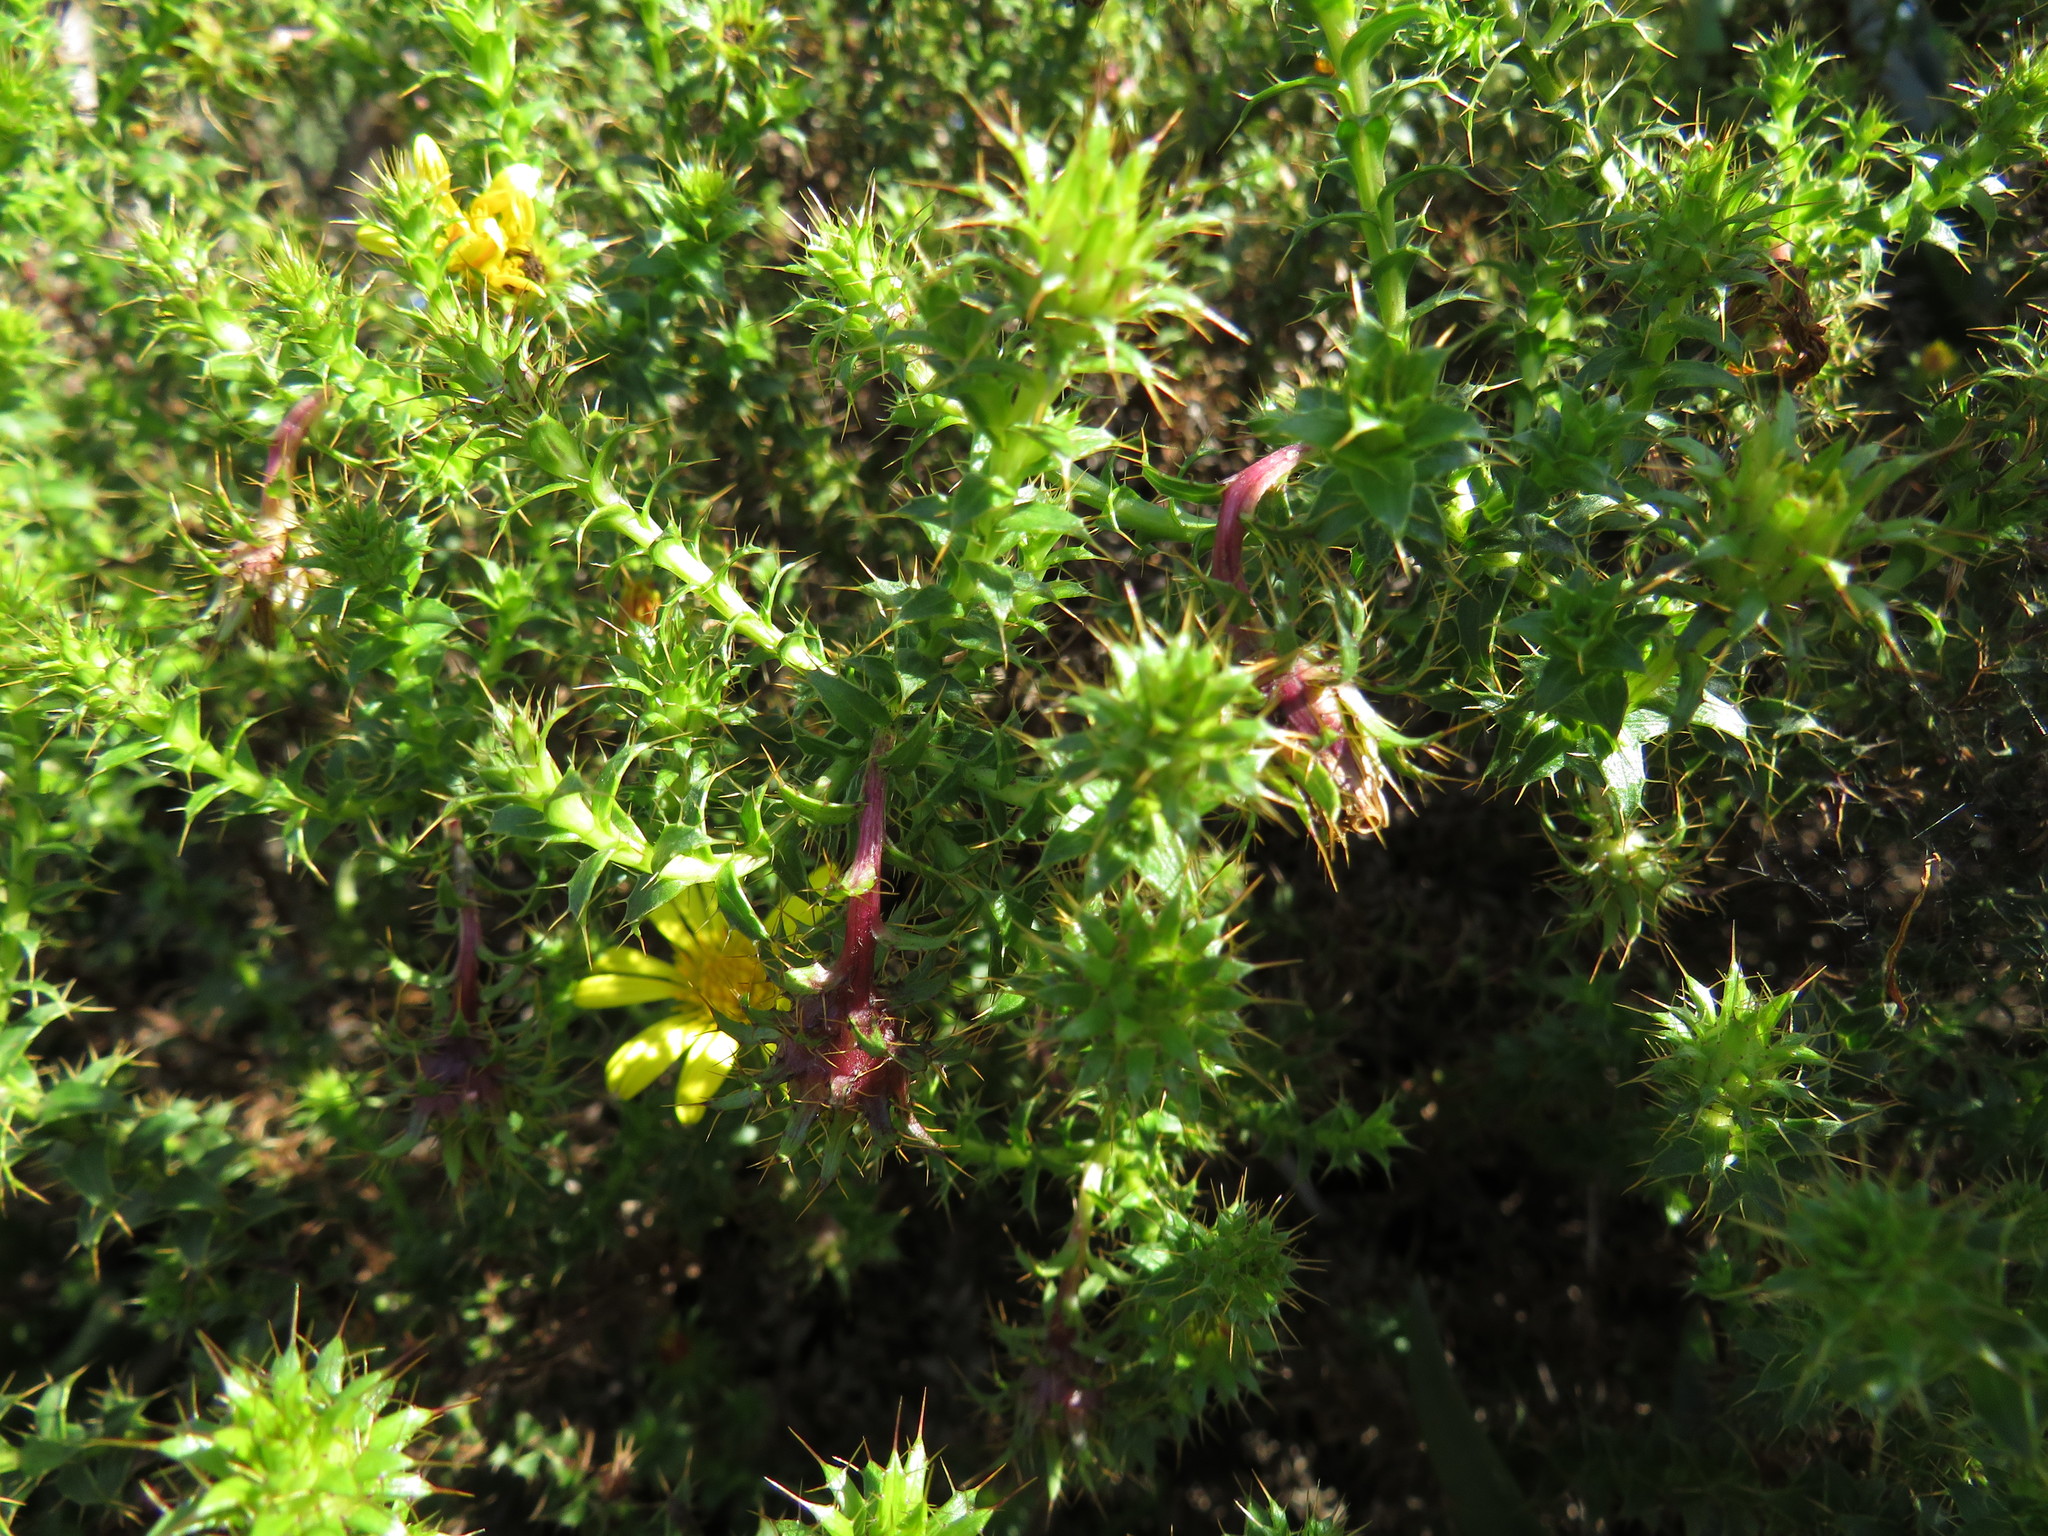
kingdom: Plantae
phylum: Tracheophyta
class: Magnoliopsida
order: Asterales
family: Asteraceae
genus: Cullumia
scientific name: Cullumia setosa
